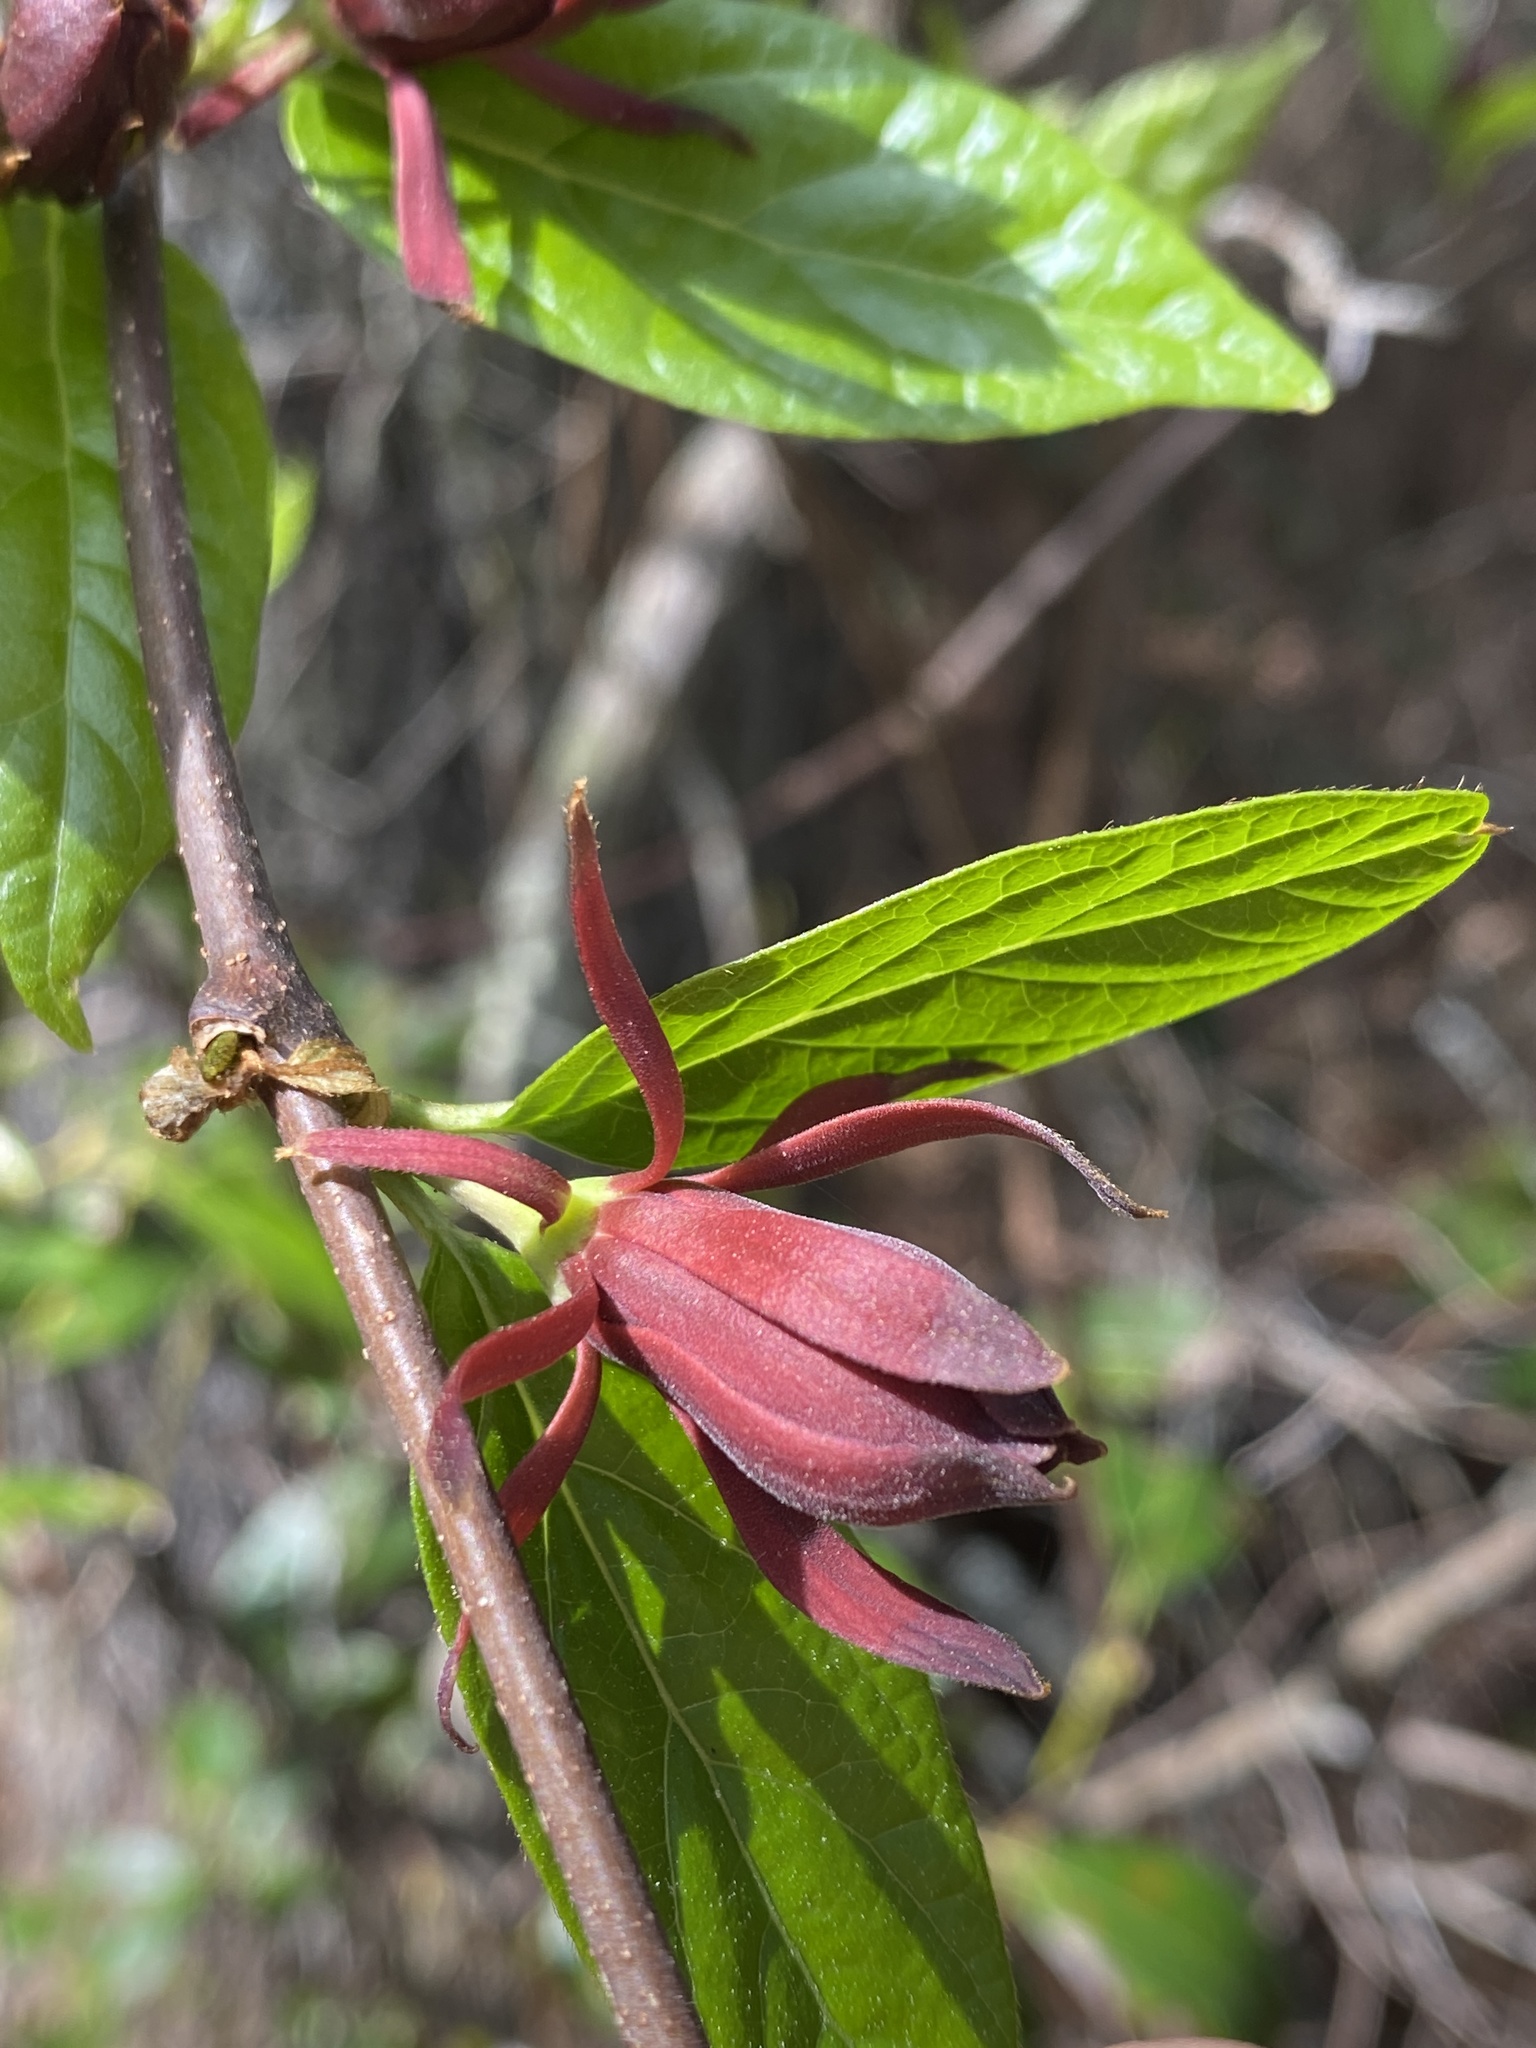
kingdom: Plantae
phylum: Tracheophyta
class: Magnoliopsida
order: Laurales
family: Calycanthaceae
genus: Calycanthus
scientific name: Calycanthus floridus
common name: Carolina-allspice
